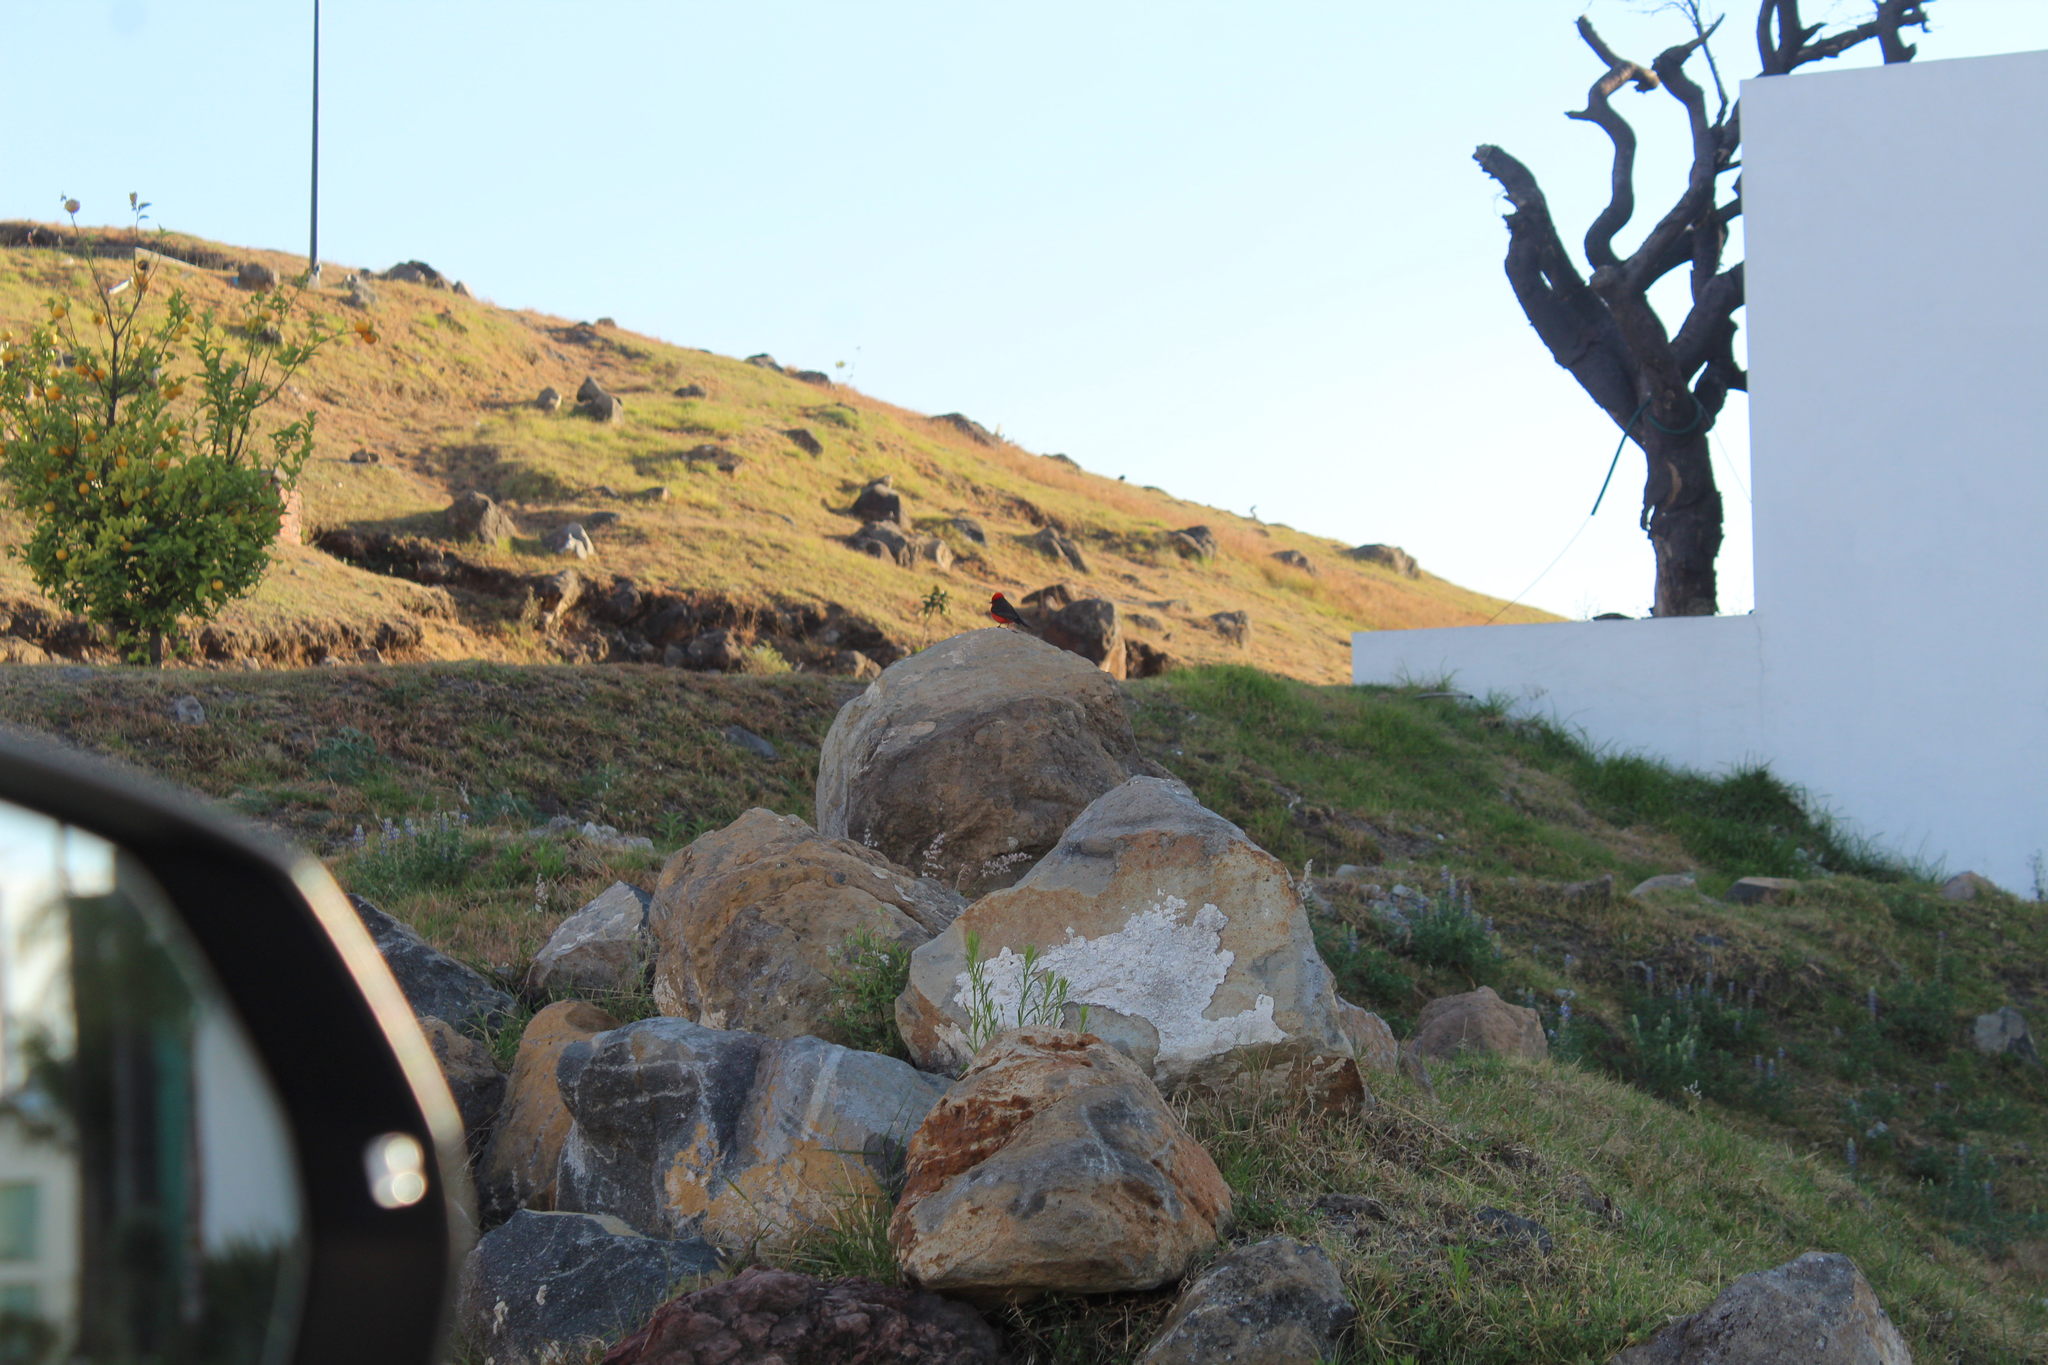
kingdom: Animalia
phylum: Chordata
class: Aves
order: Passeriformes
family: Tyrannidae
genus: Pyrocephalus
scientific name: Pyrocephalus rubinus
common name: Vermilion flycatcher
